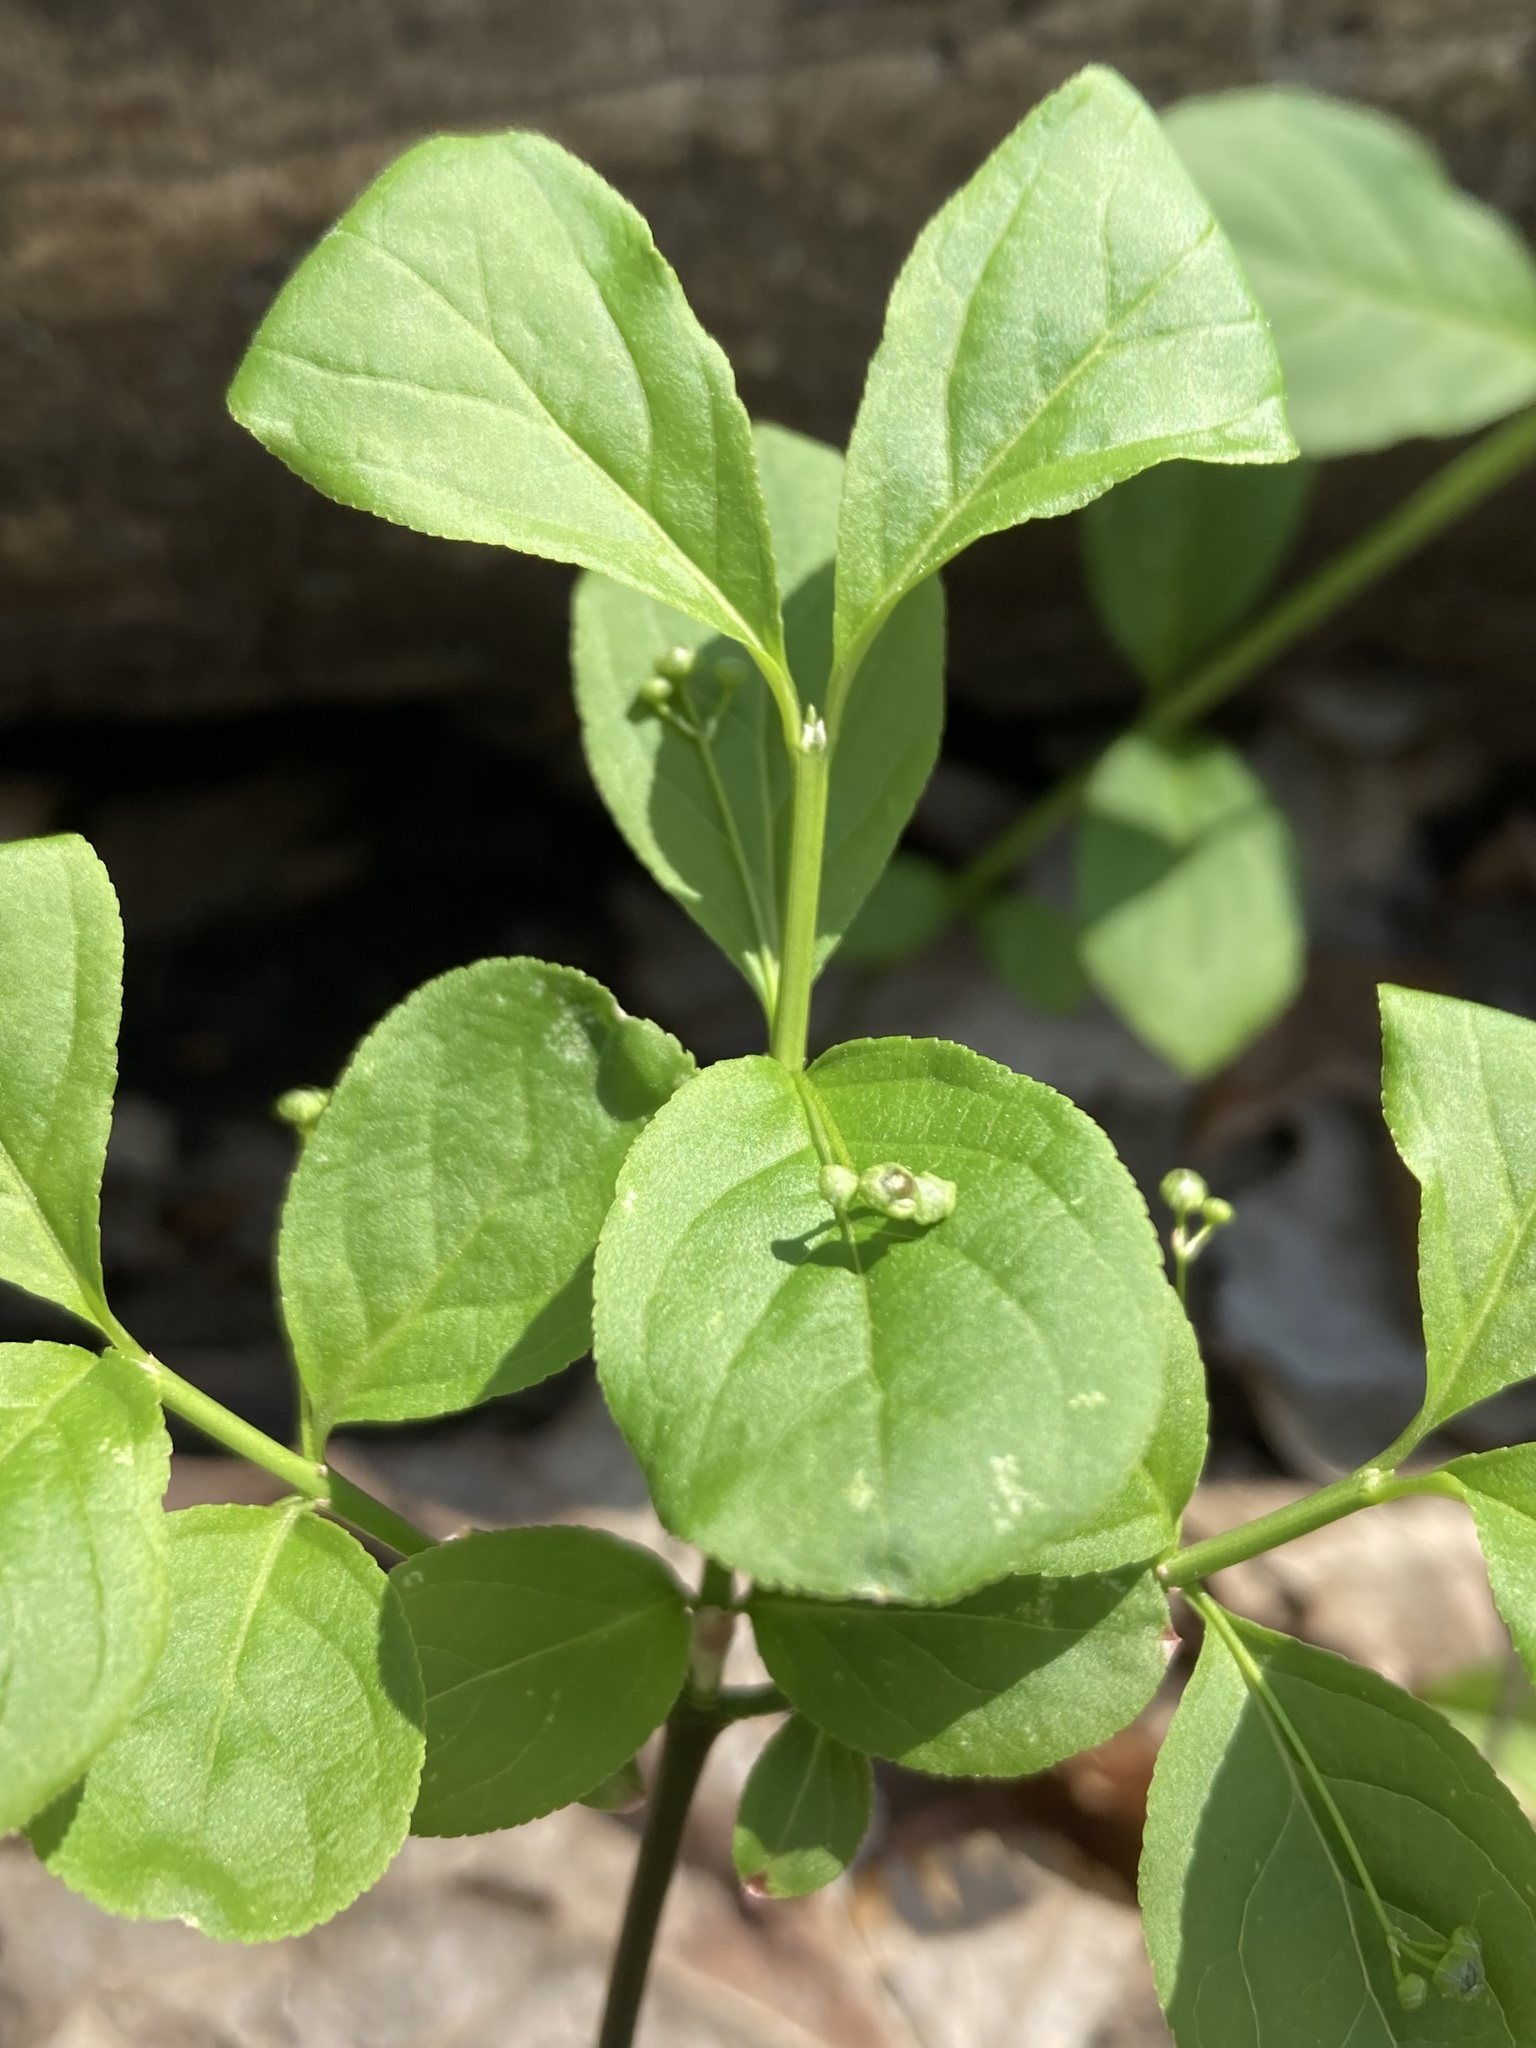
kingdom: Plantae
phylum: Tracheophyta
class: Magnoliopsida
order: Celastrales
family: Celastraceae
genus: Euonymus
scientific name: Euonymus obovatus
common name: Running strawberry-bush
